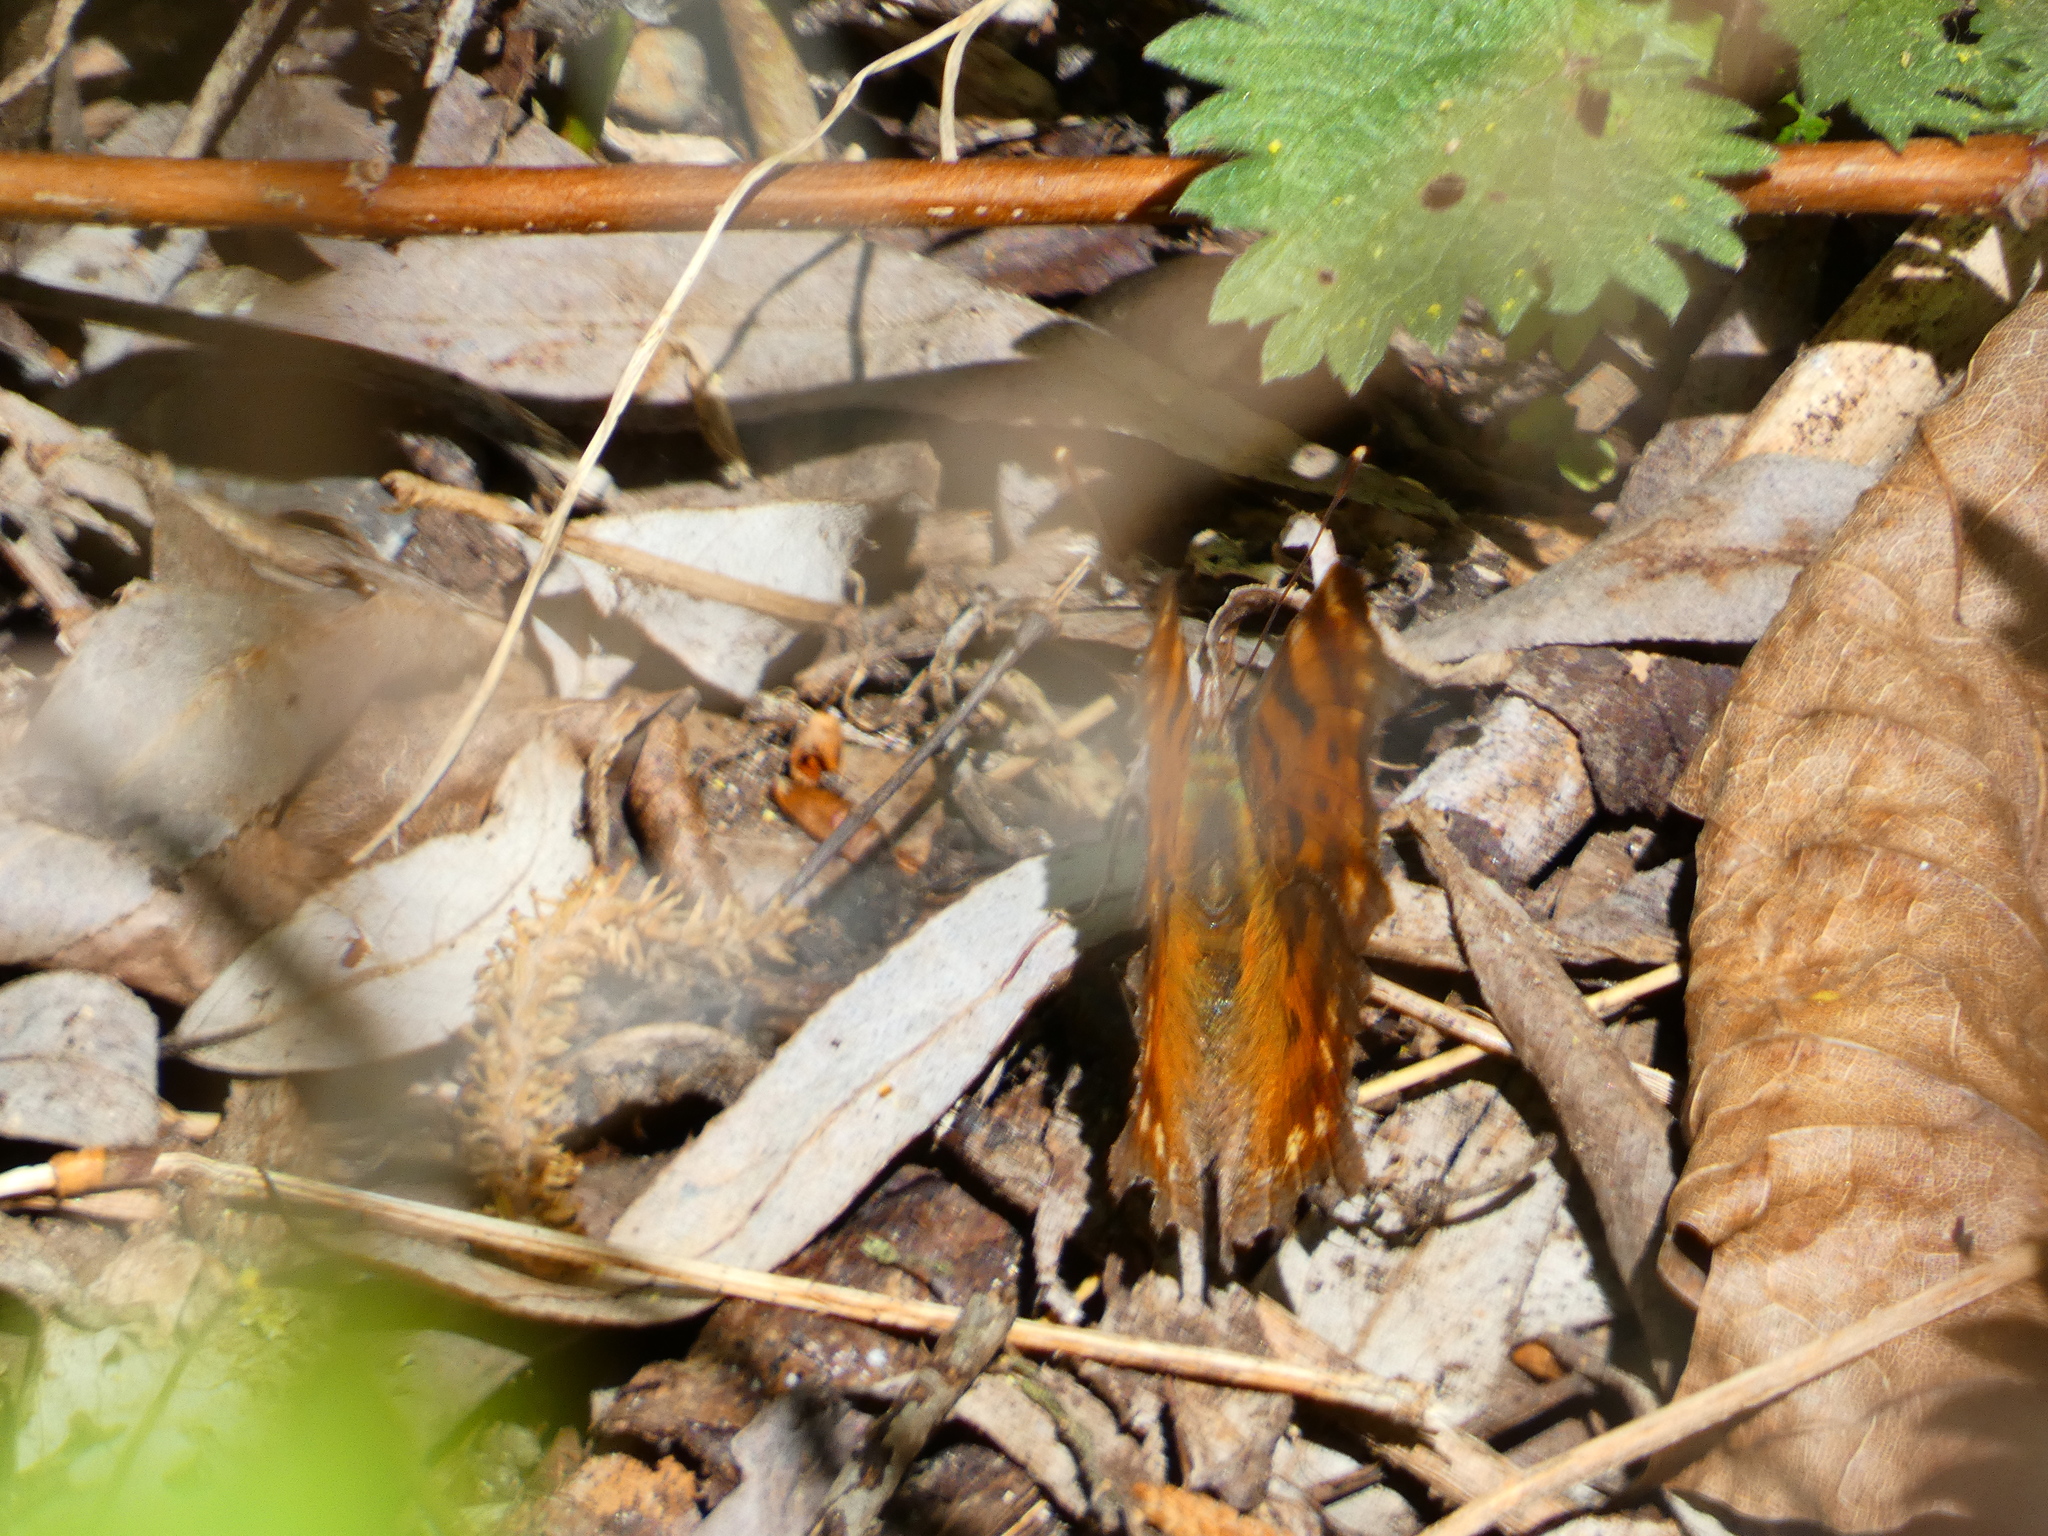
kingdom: Animalia
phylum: Arthropoda
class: Insecta
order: Lepidoptera
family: Nymphalidae
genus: Polygonia
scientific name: Polygonia c-album
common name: Comma
